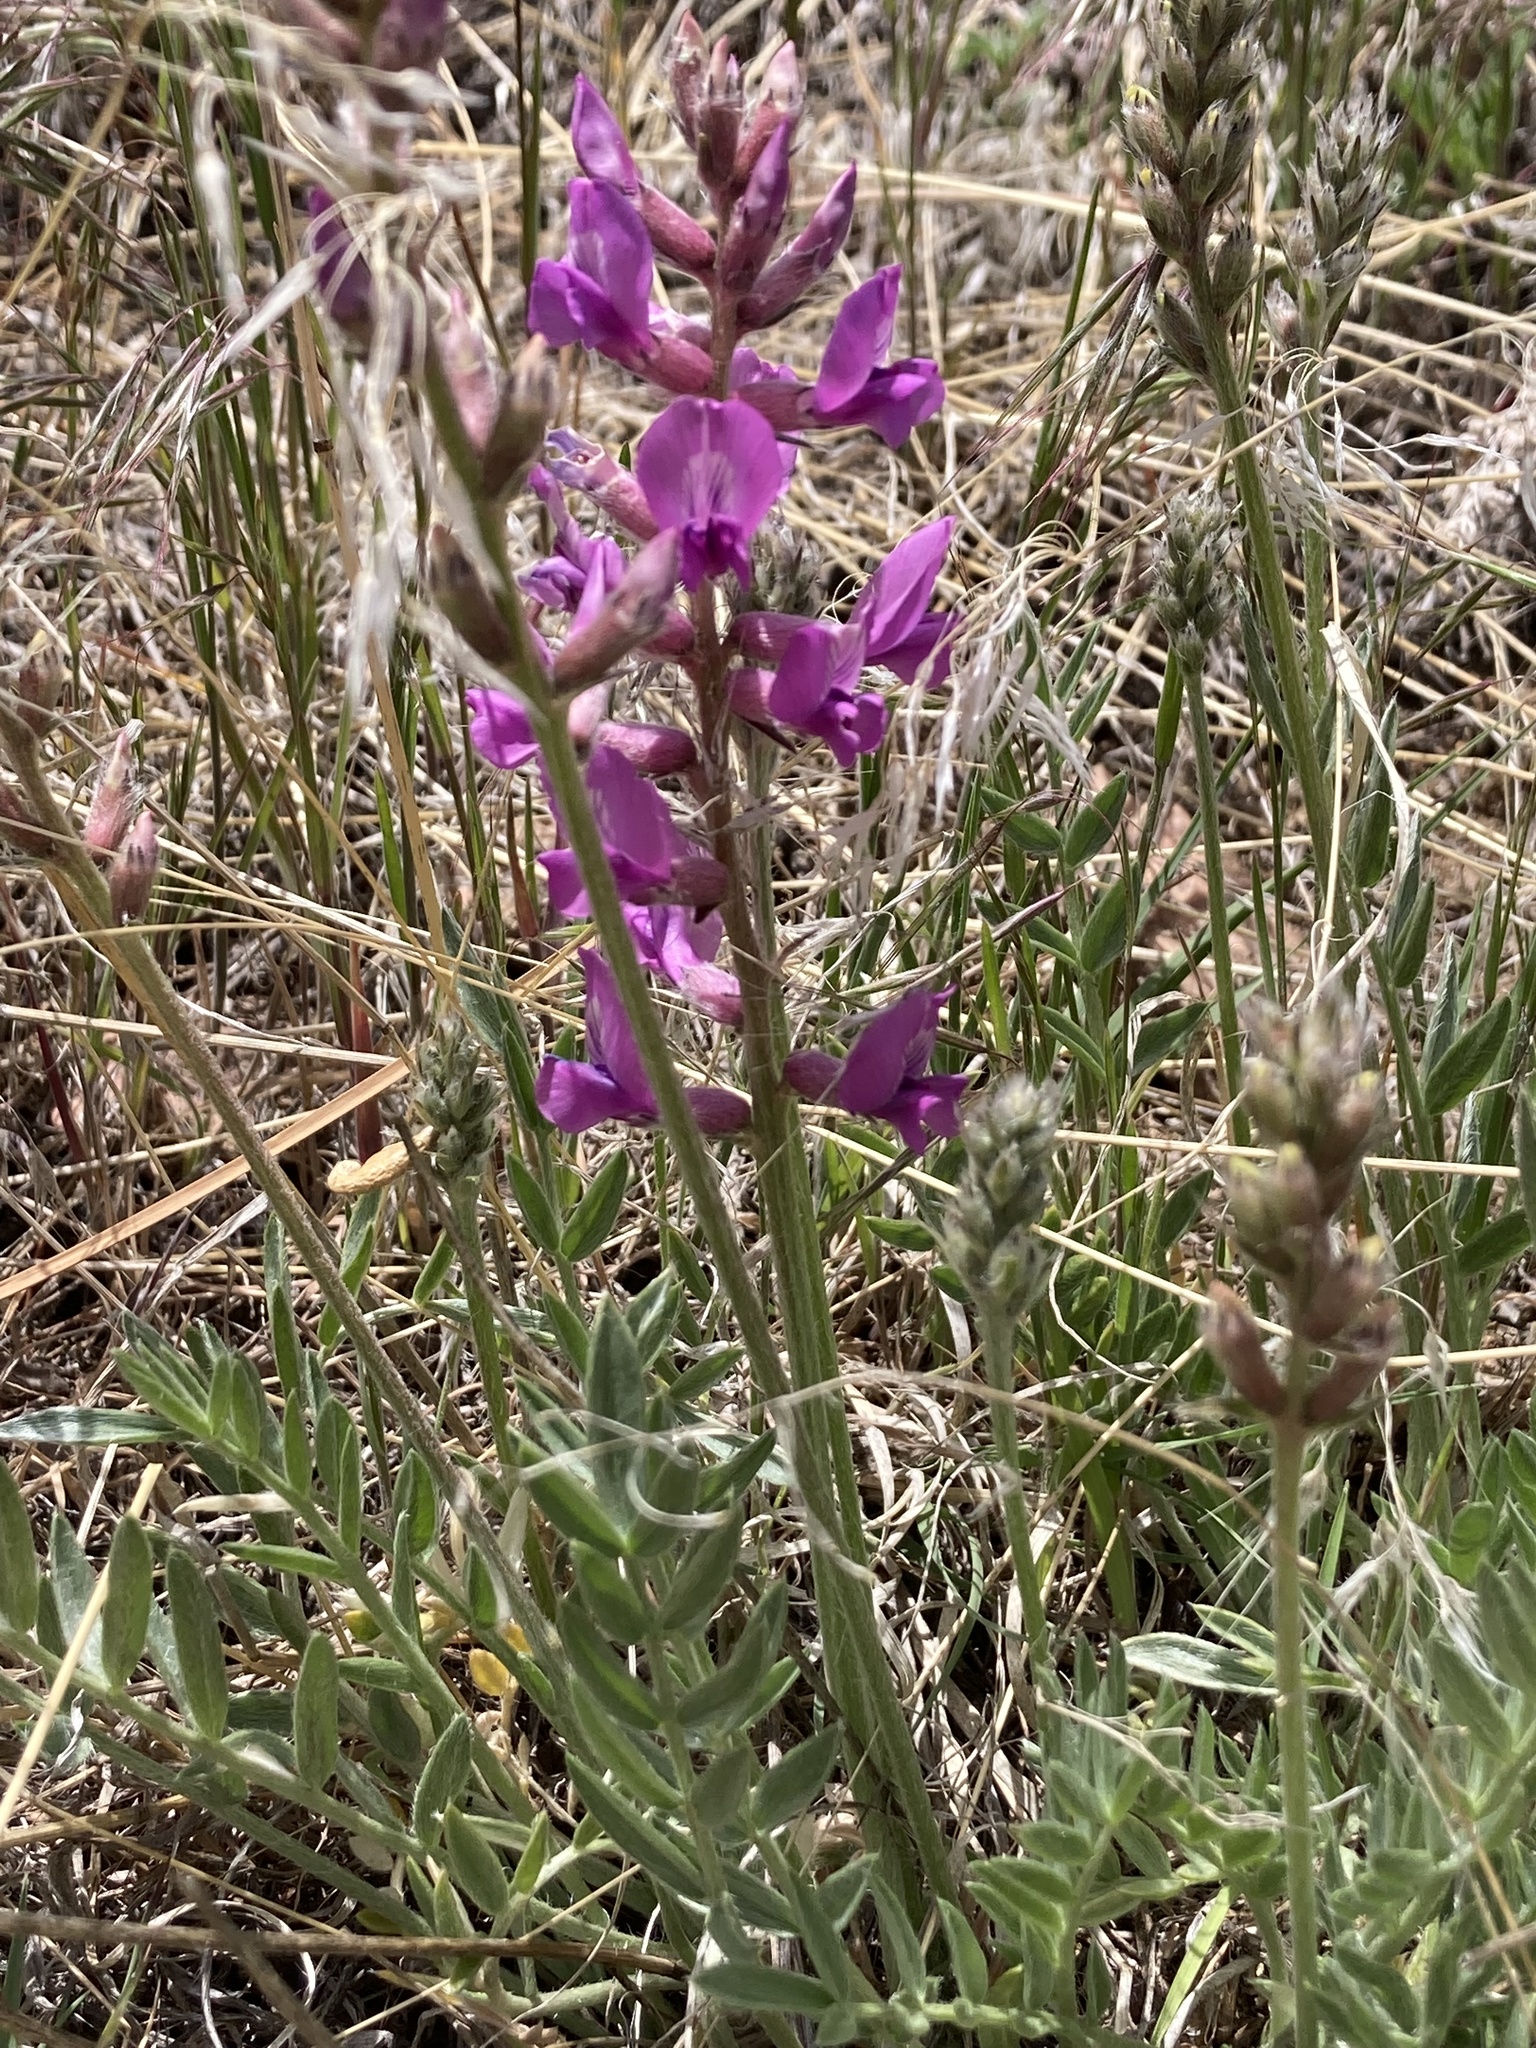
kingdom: Plantae
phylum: Tracheophyta
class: Magnoliopsida
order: Fabales
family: Fabaceae
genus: Oxytropis
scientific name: Oxytropis lambertii
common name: Purple locoweed
